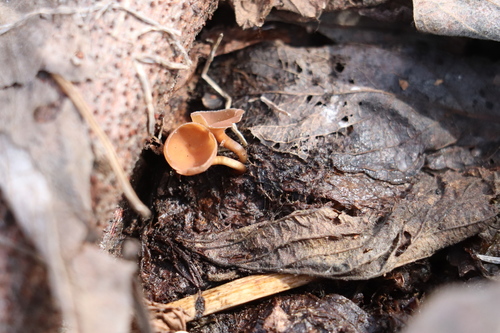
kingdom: Fungi
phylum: Ascomycota
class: Leotiomycetes
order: Helotiales
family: Sclerotiniaceae
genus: Ciboria
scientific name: Ciboria caucus
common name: Alder goblet
